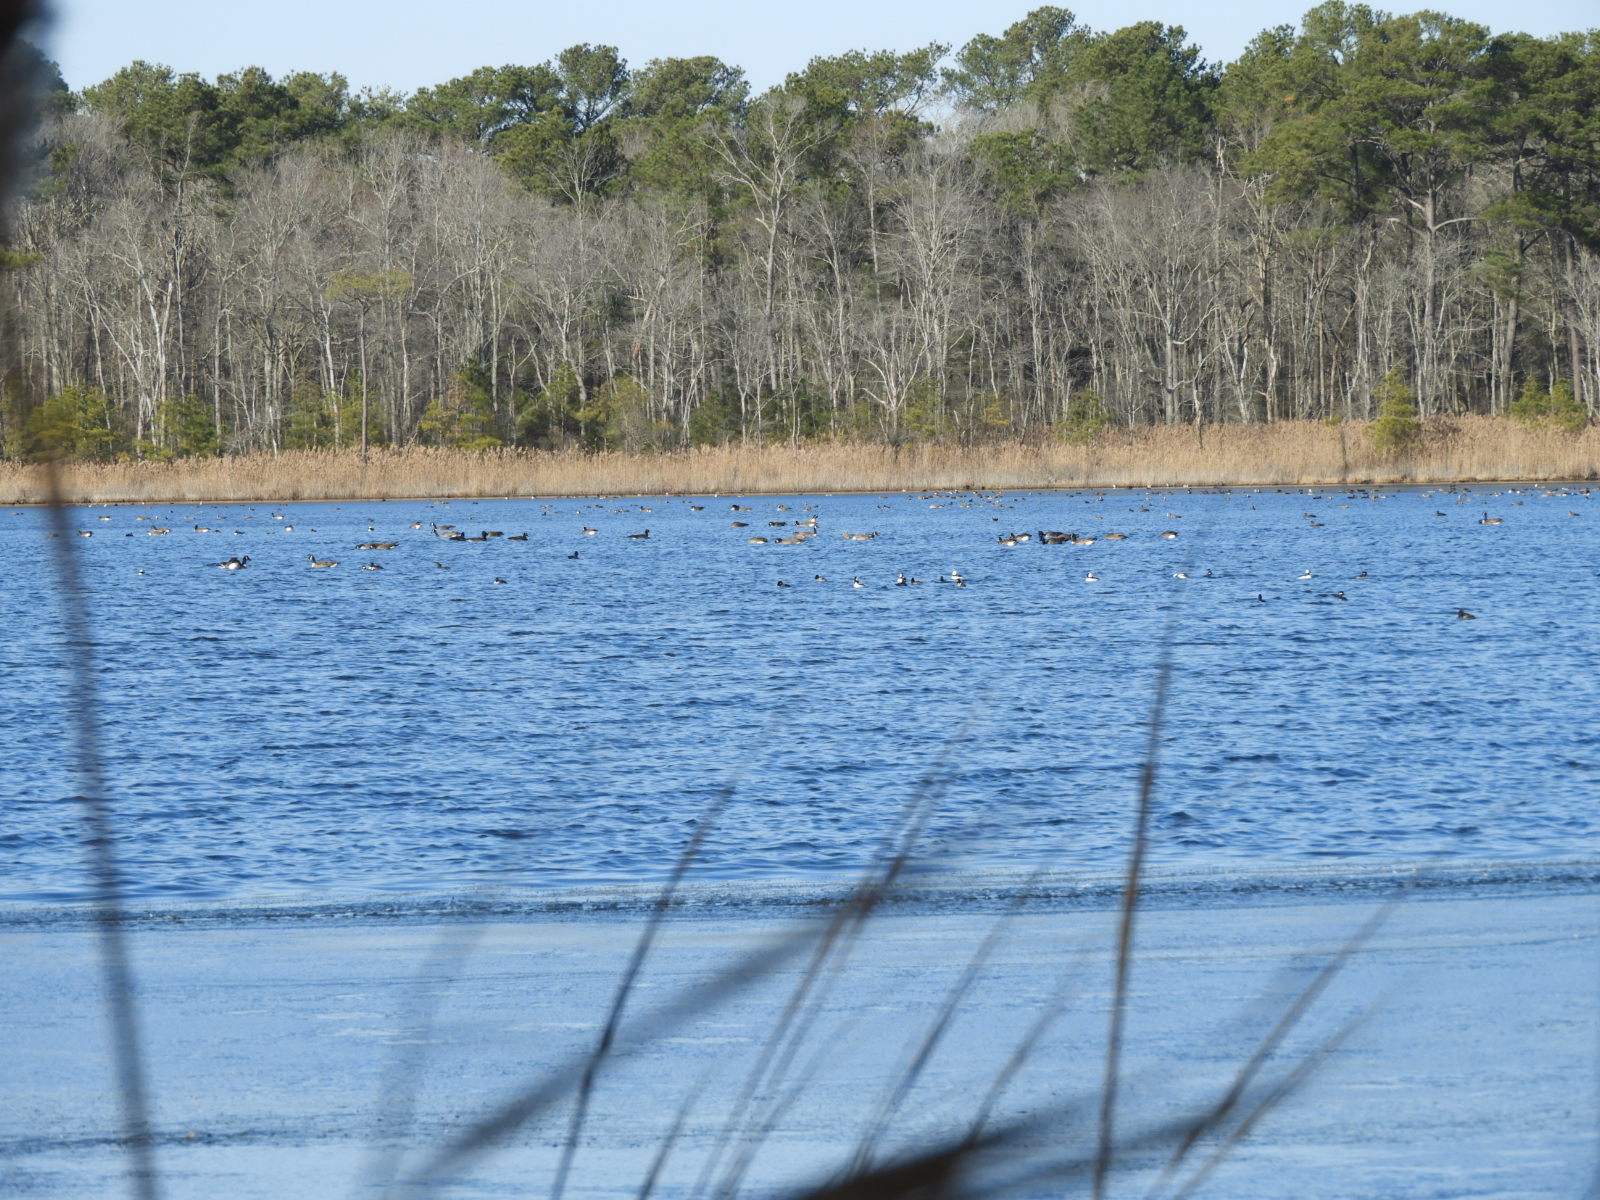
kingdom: Animalia
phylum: Chordata
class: Aves
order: Anseriformes
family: Anatidae
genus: Mareca
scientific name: Mareca americana
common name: American wigeon
